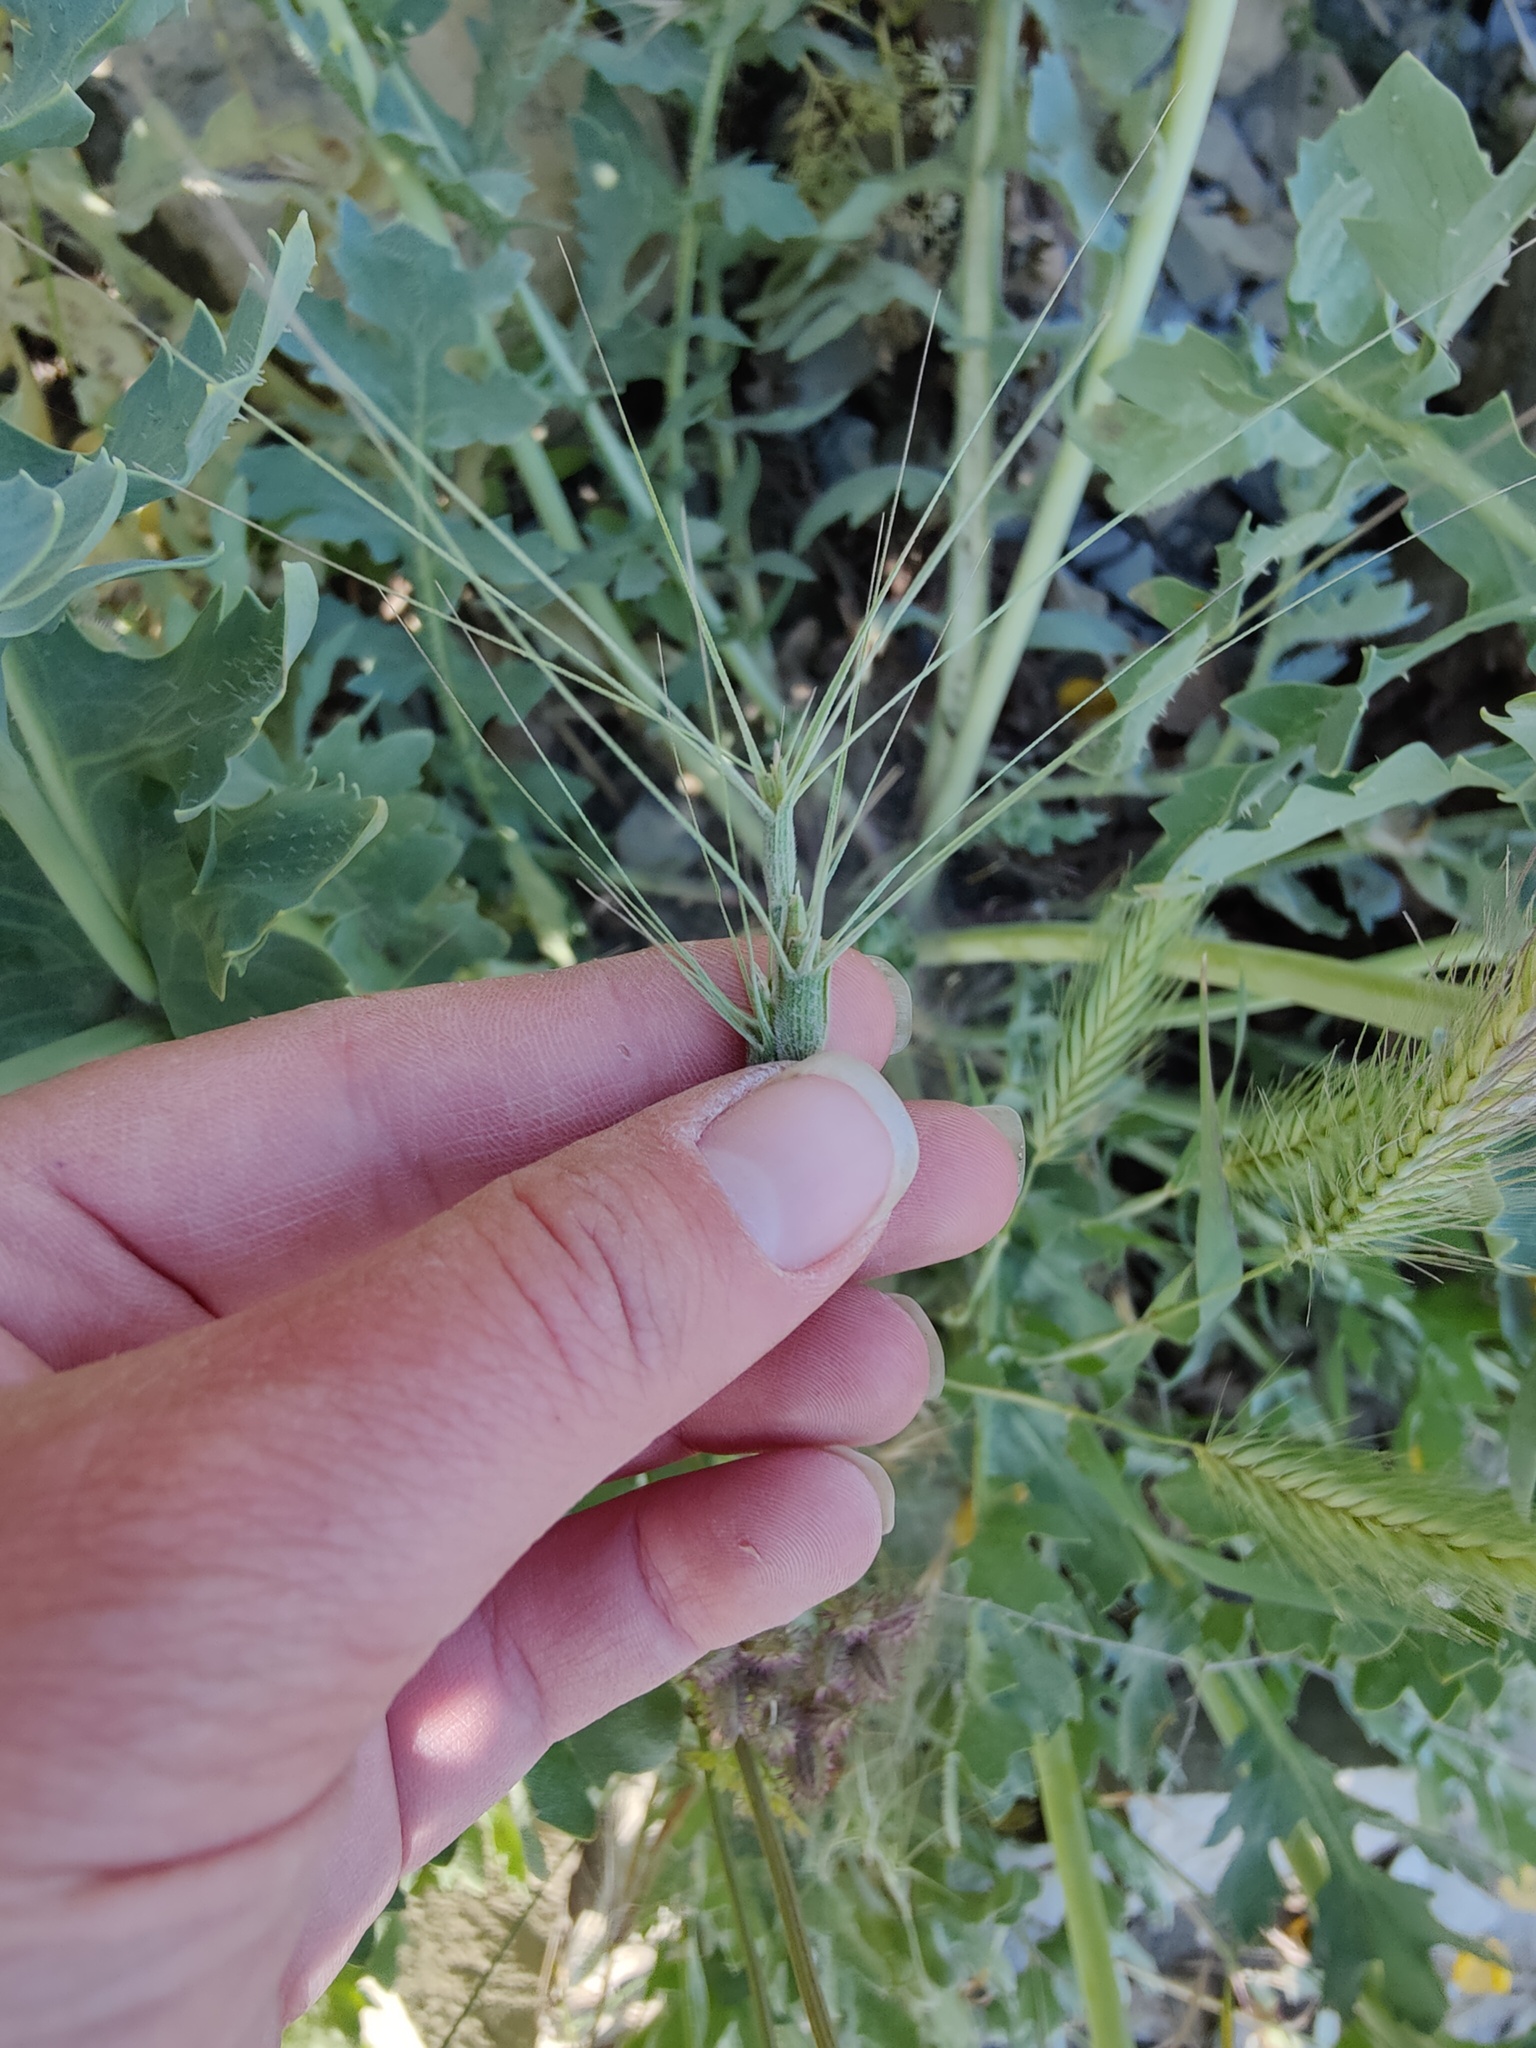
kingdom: Plantae
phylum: Tracheophyta
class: Liliopsida
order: Poales
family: Poaceae
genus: Aegilops
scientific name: Aegilops biuncialis
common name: Mediterranean aegilops
